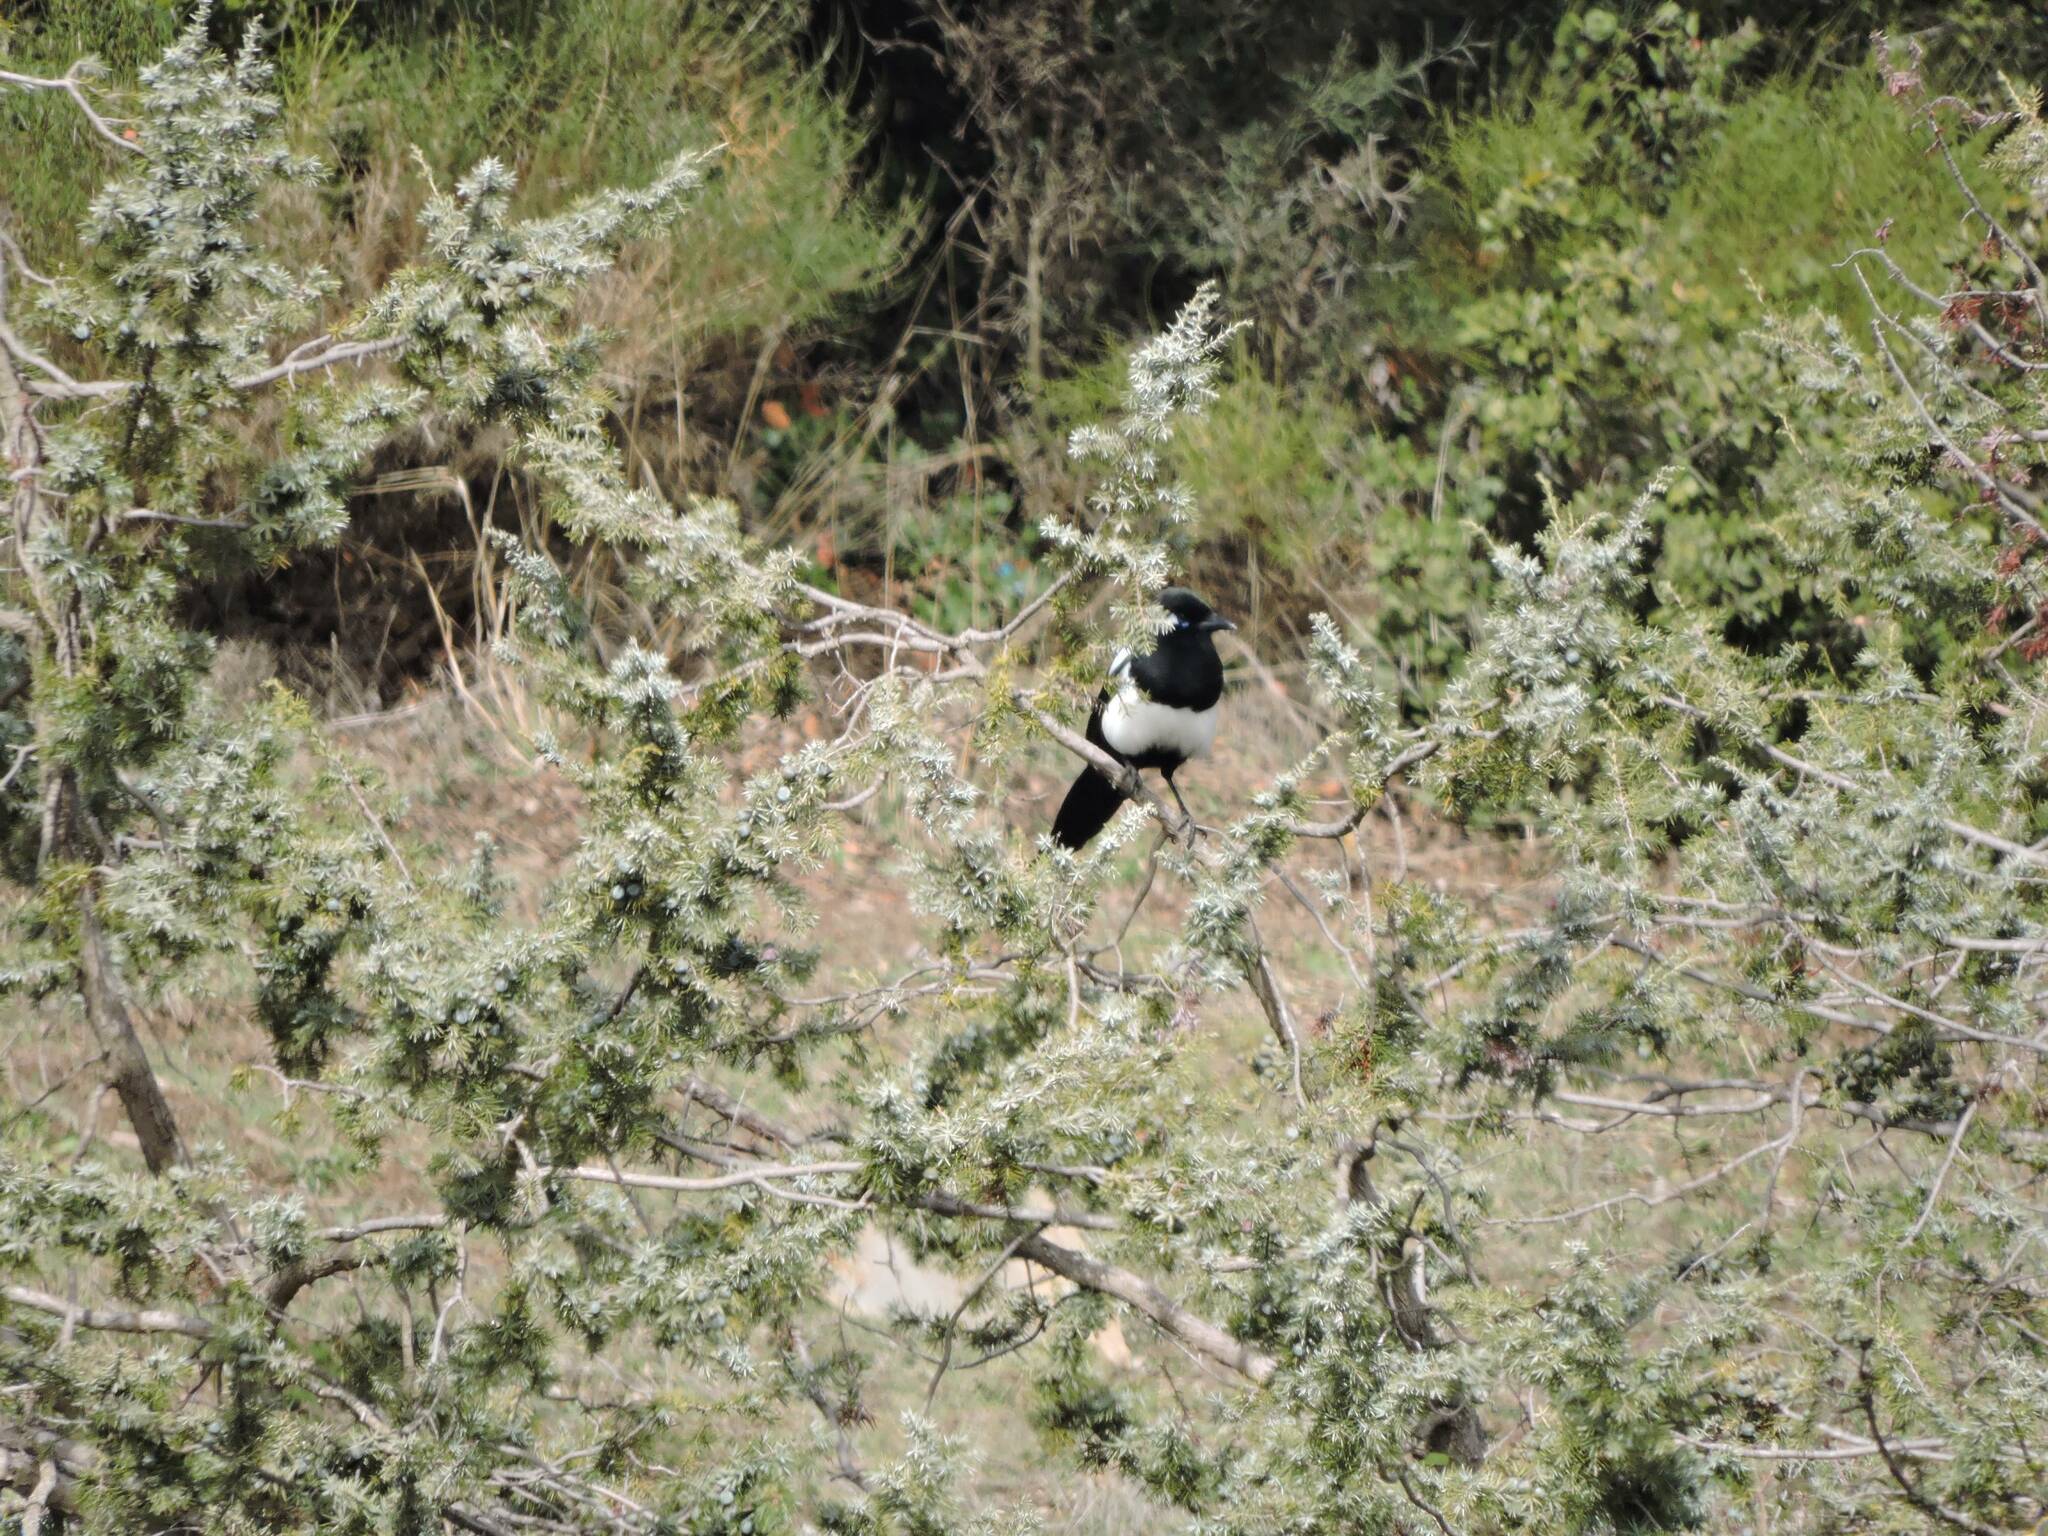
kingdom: Animalia
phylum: Chordata
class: Aves
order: Passeriformes
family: Corvidae
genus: Pica
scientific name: Pica mauritanica
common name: Maghreb magpie
